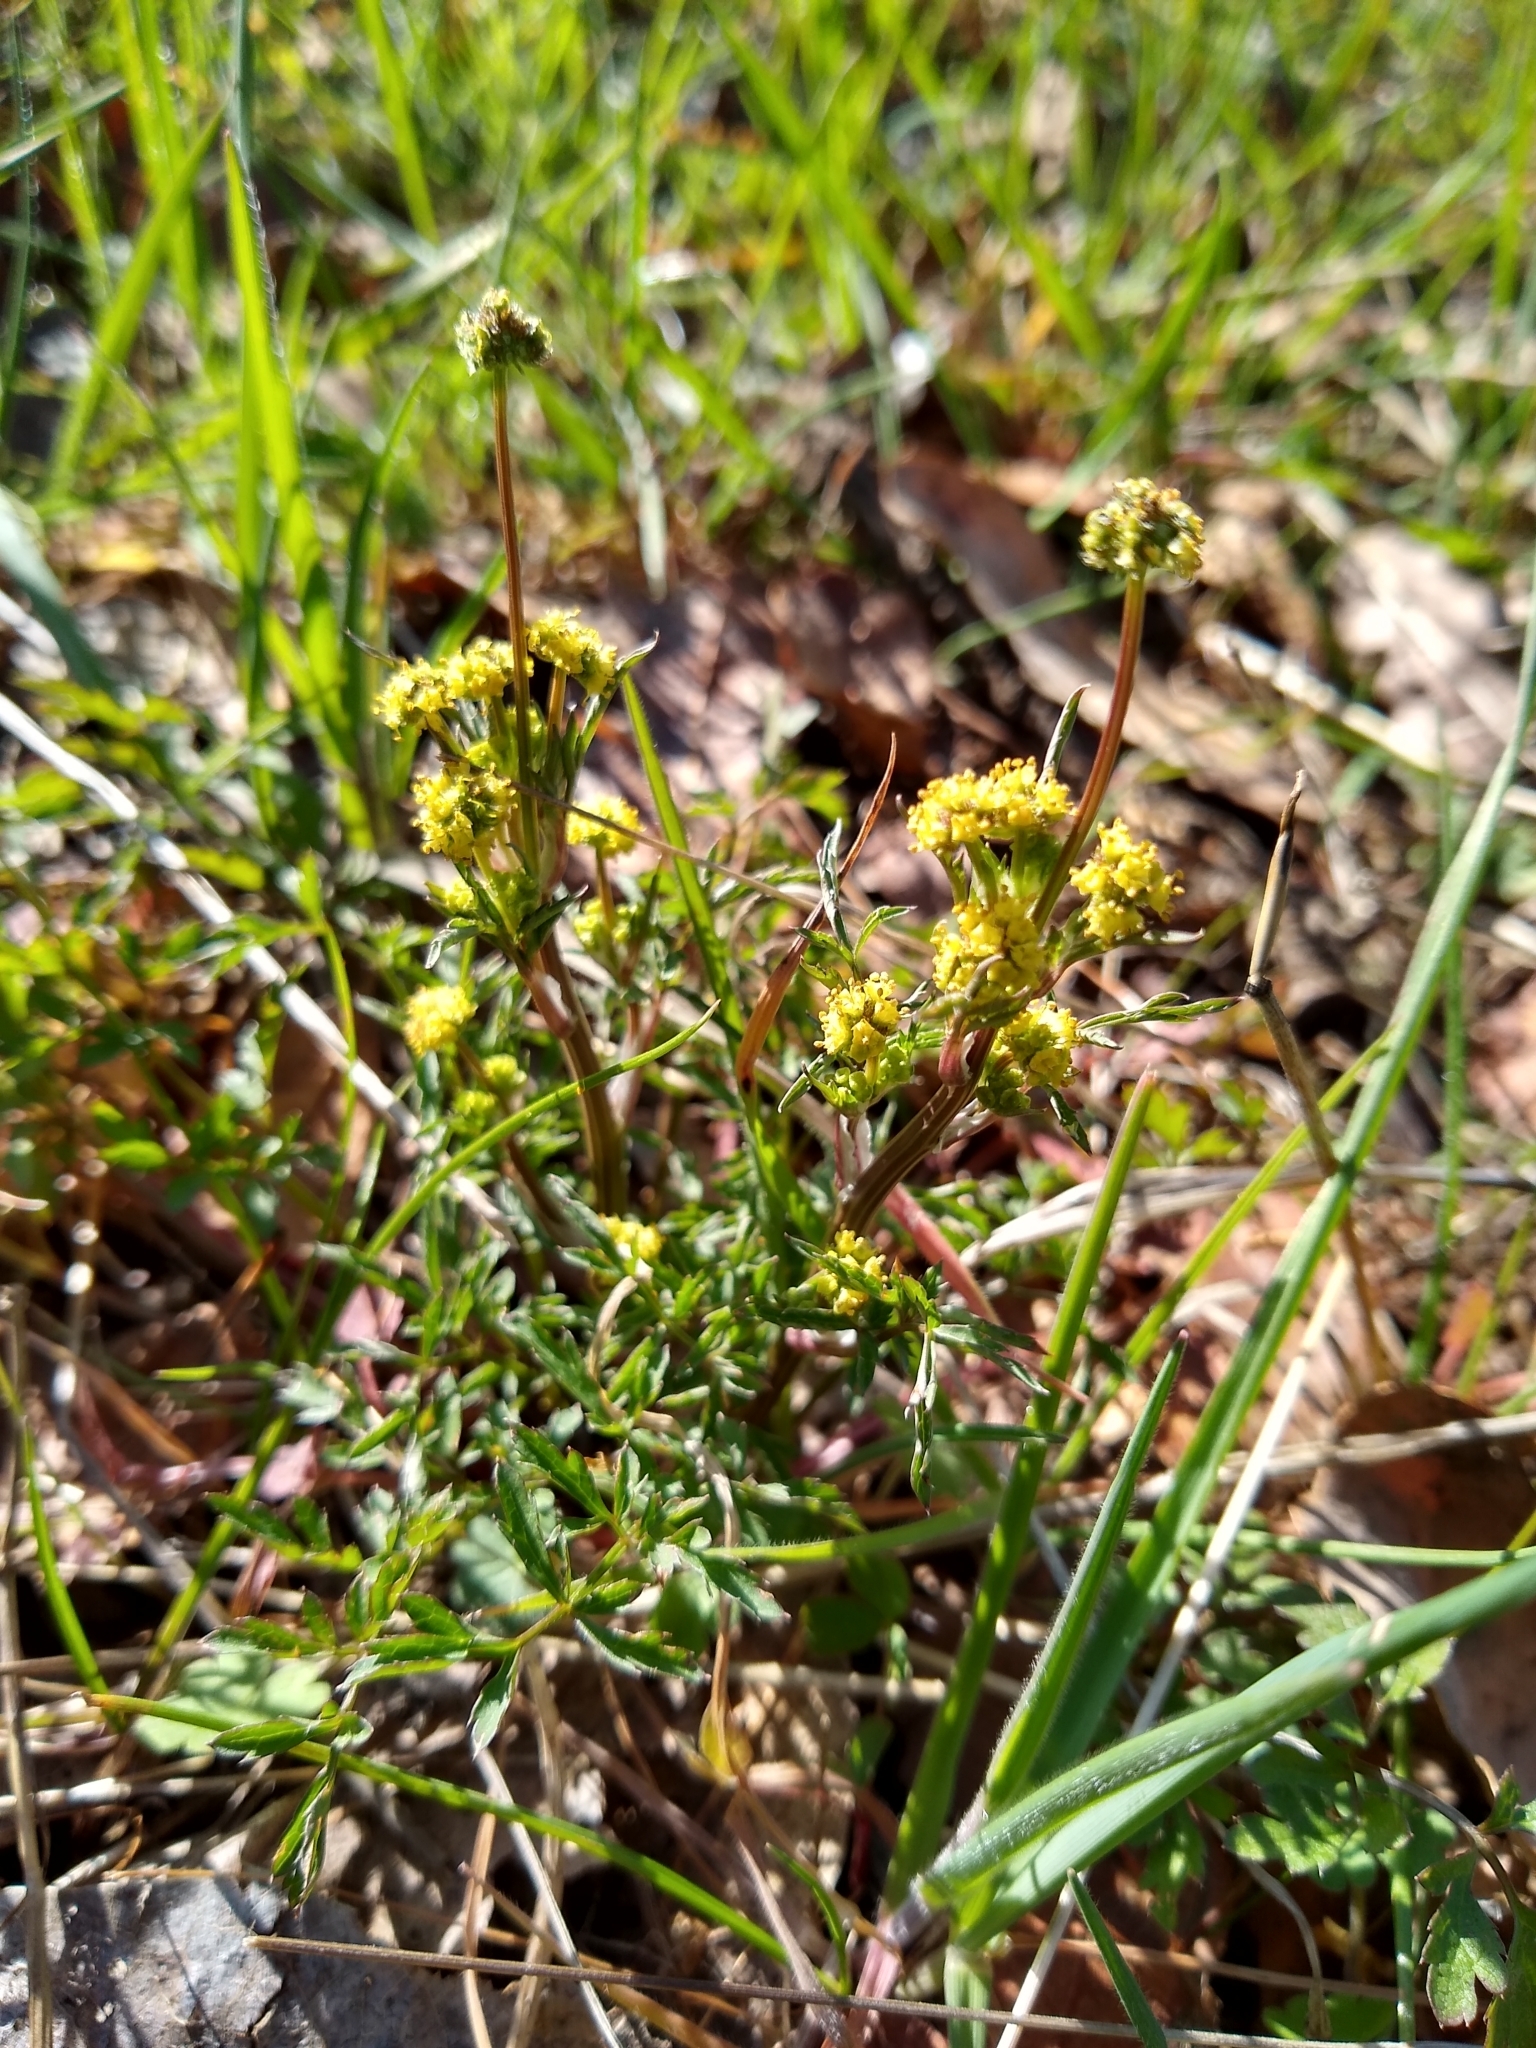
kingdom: Plantae
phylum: Tracheophyta
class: Magnoliopsida
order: Apiales
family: Apiaceae
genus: Sanicula
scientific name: Sanicula bipinnata
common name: Poison sanicle
